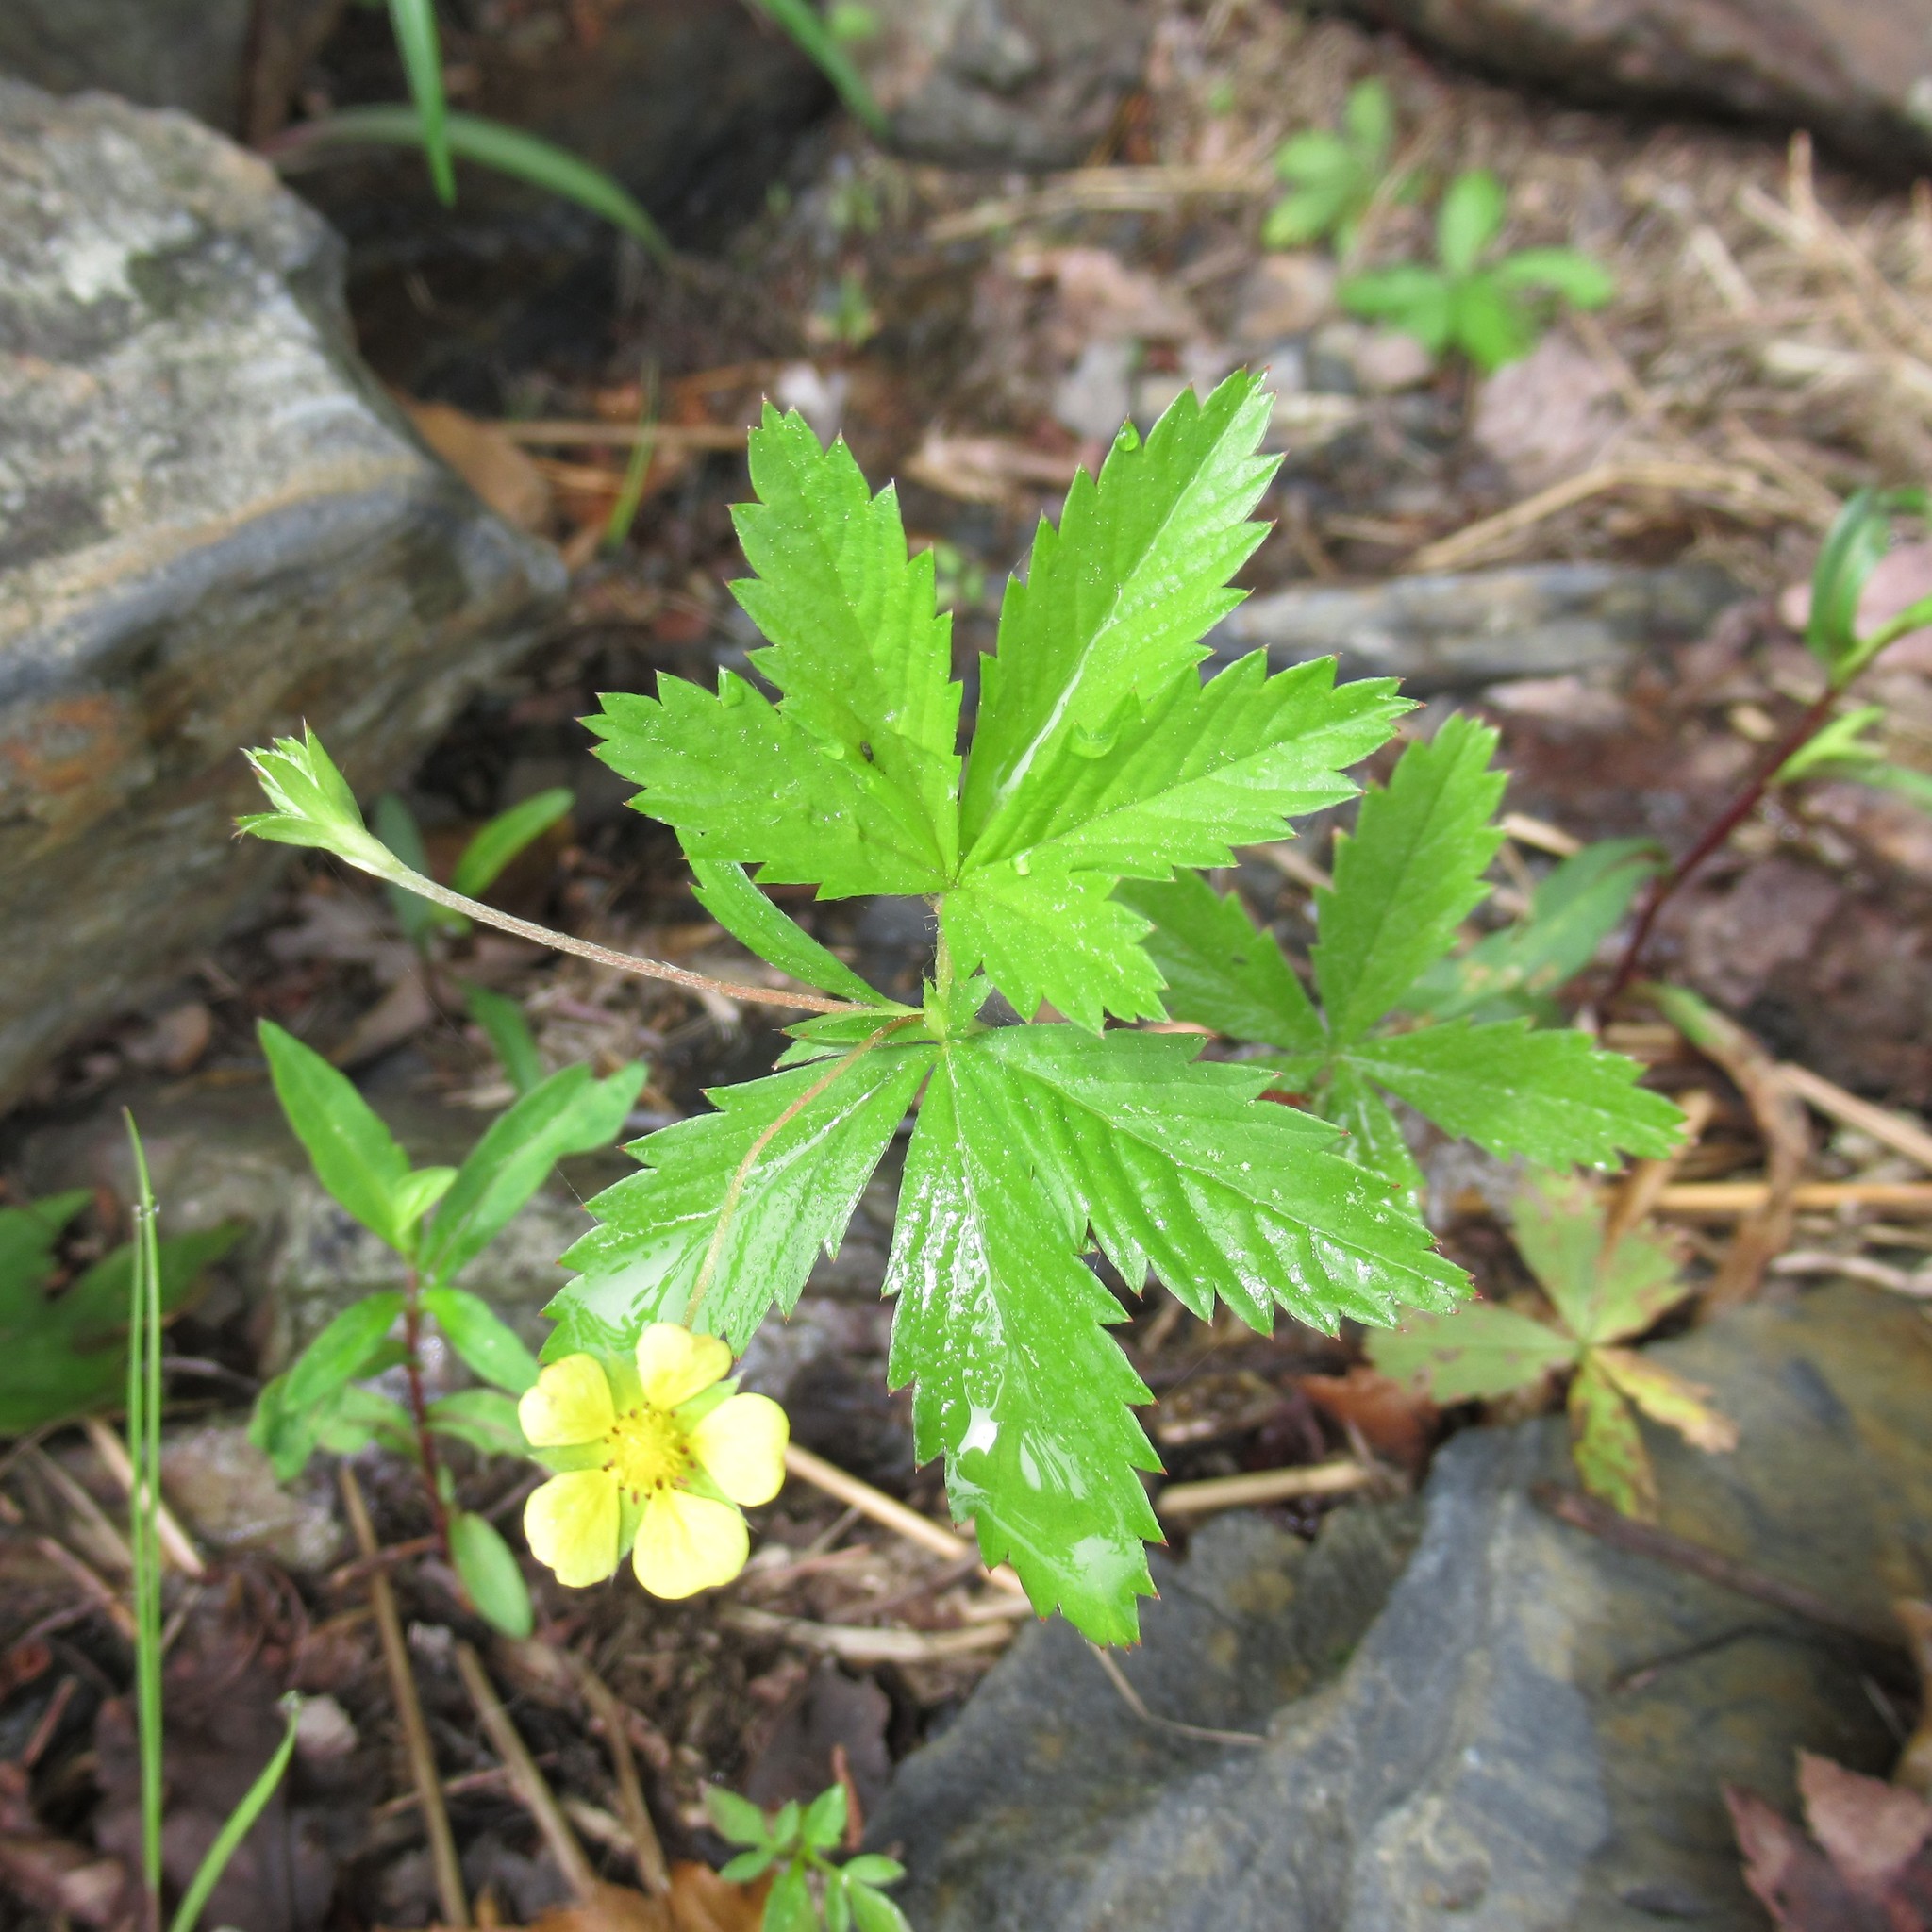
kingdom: Plantae
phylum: Tracheophyta
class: Magnoliopsida
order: Rosales
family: Rosaceae
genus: Potentilla
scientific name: Potentilla simplex
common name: Old field cinquefoil
